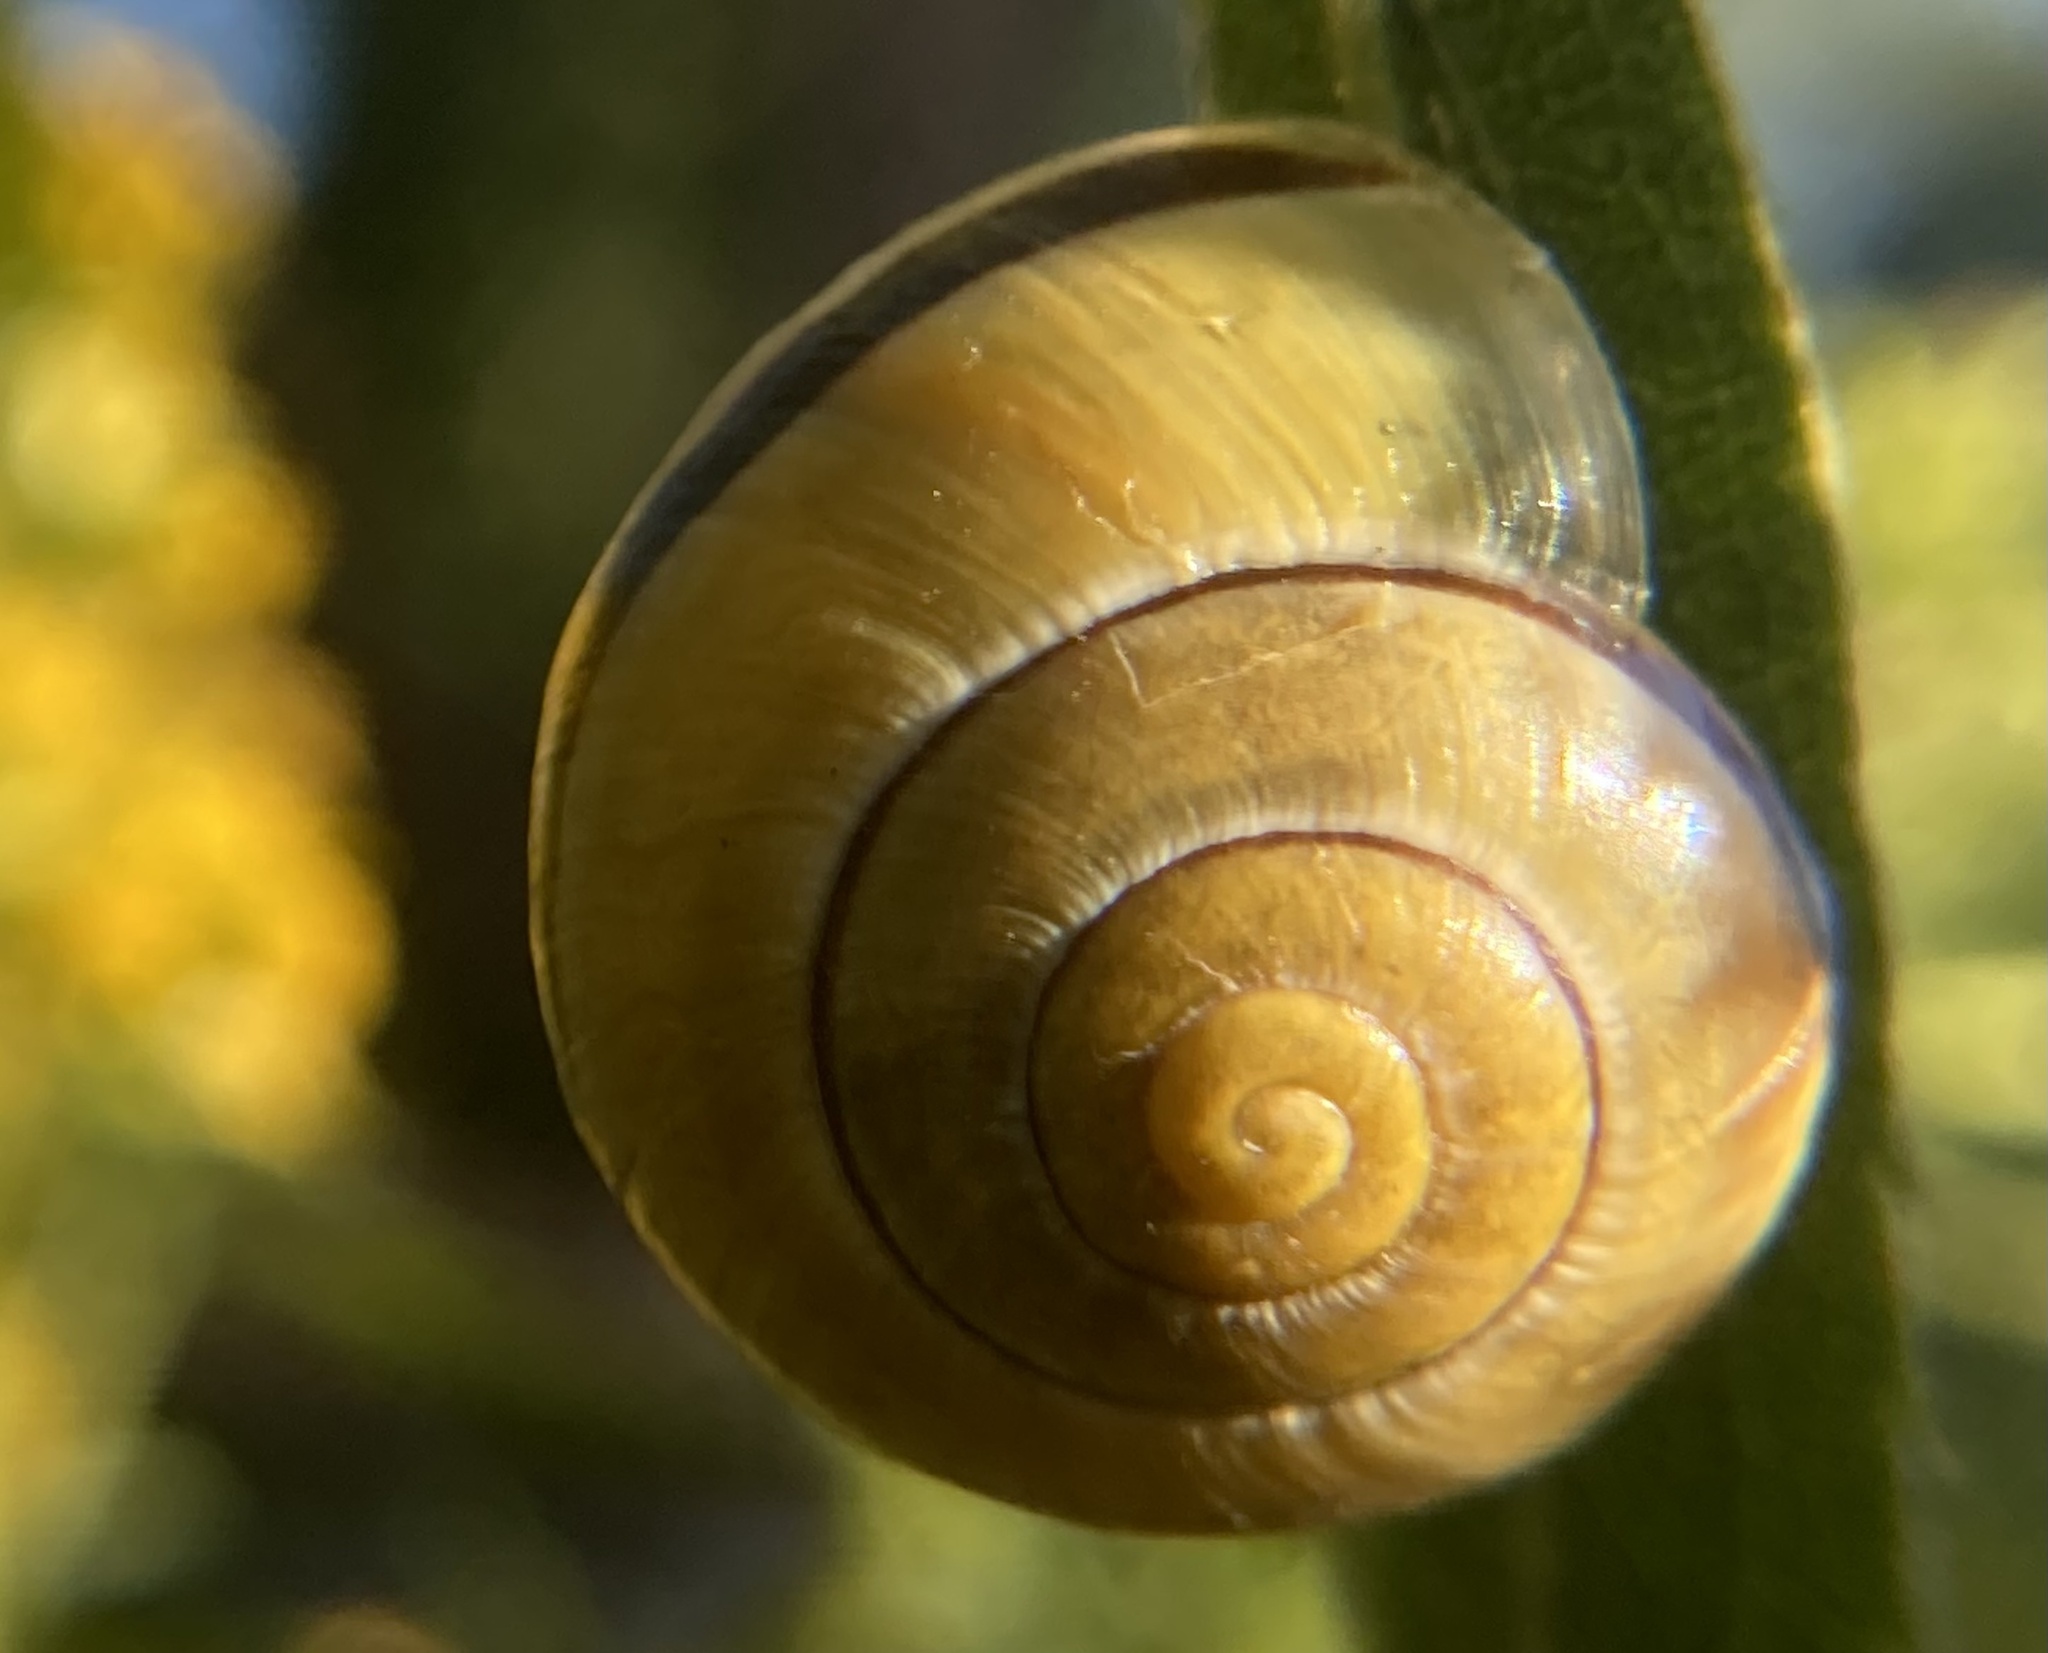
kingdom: Animalia
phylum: Mollusca
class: Gastropoda
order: Stylommatophora
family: Helicidae
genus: Cepaea
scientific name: Cepaea nemoralis
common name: Grovesnail
